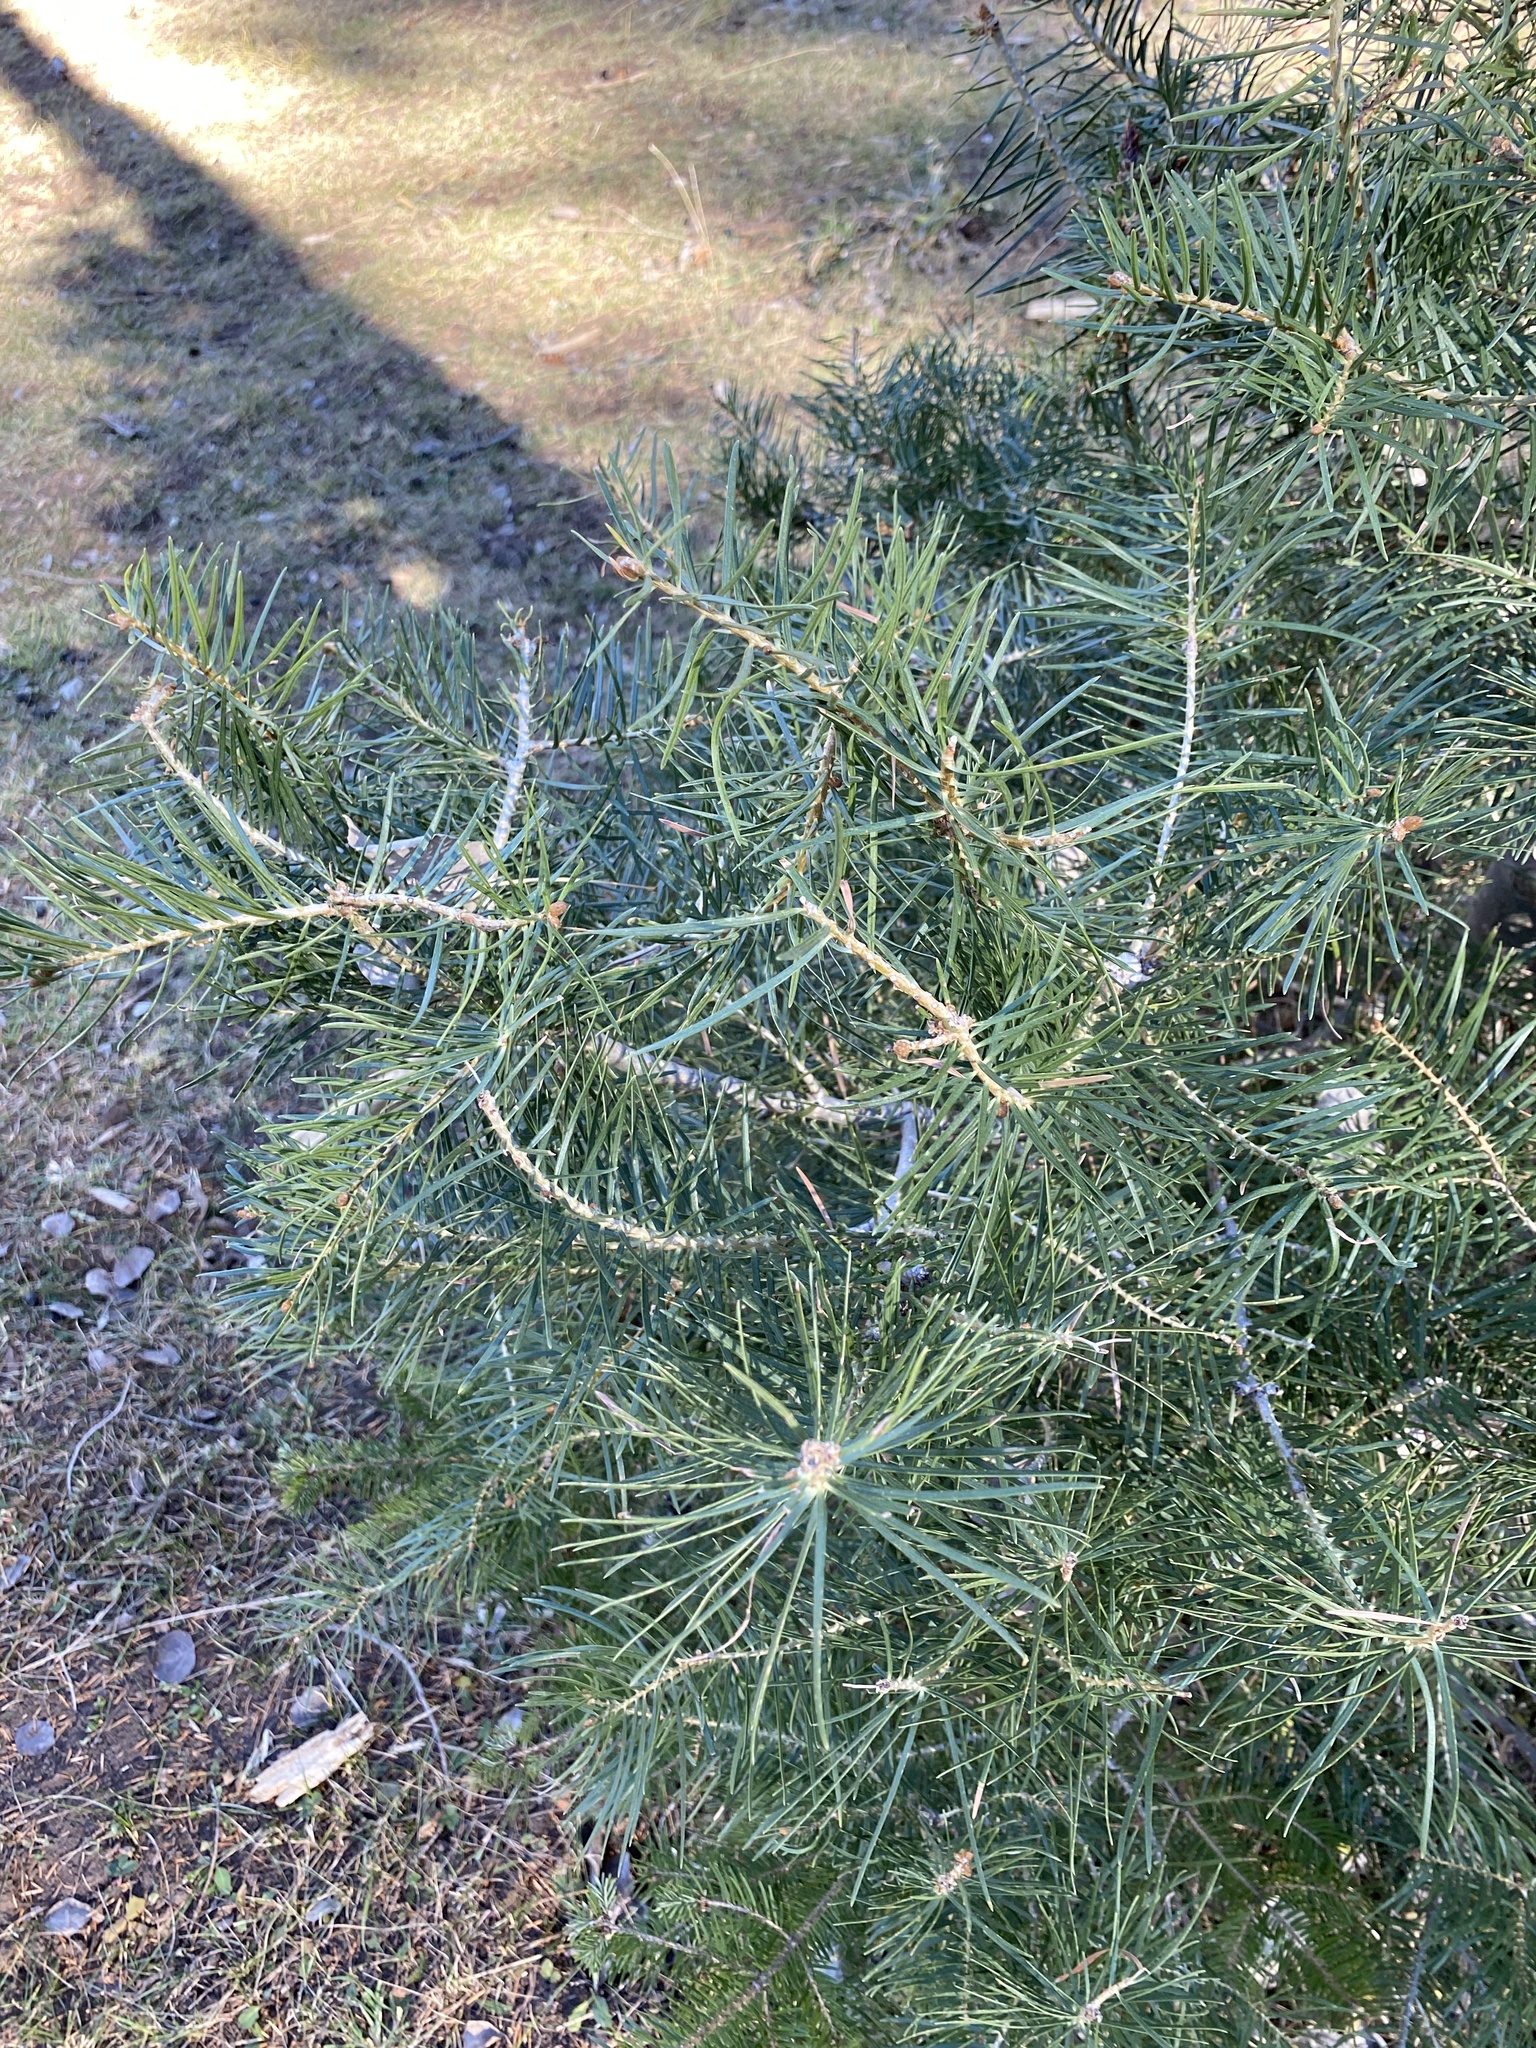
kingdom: Plantae
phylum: Tracheophyta
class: Pinopsida
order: Pinales
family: Pinaceae
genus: Abies
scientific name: Abies concolor
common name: Colorado fir
